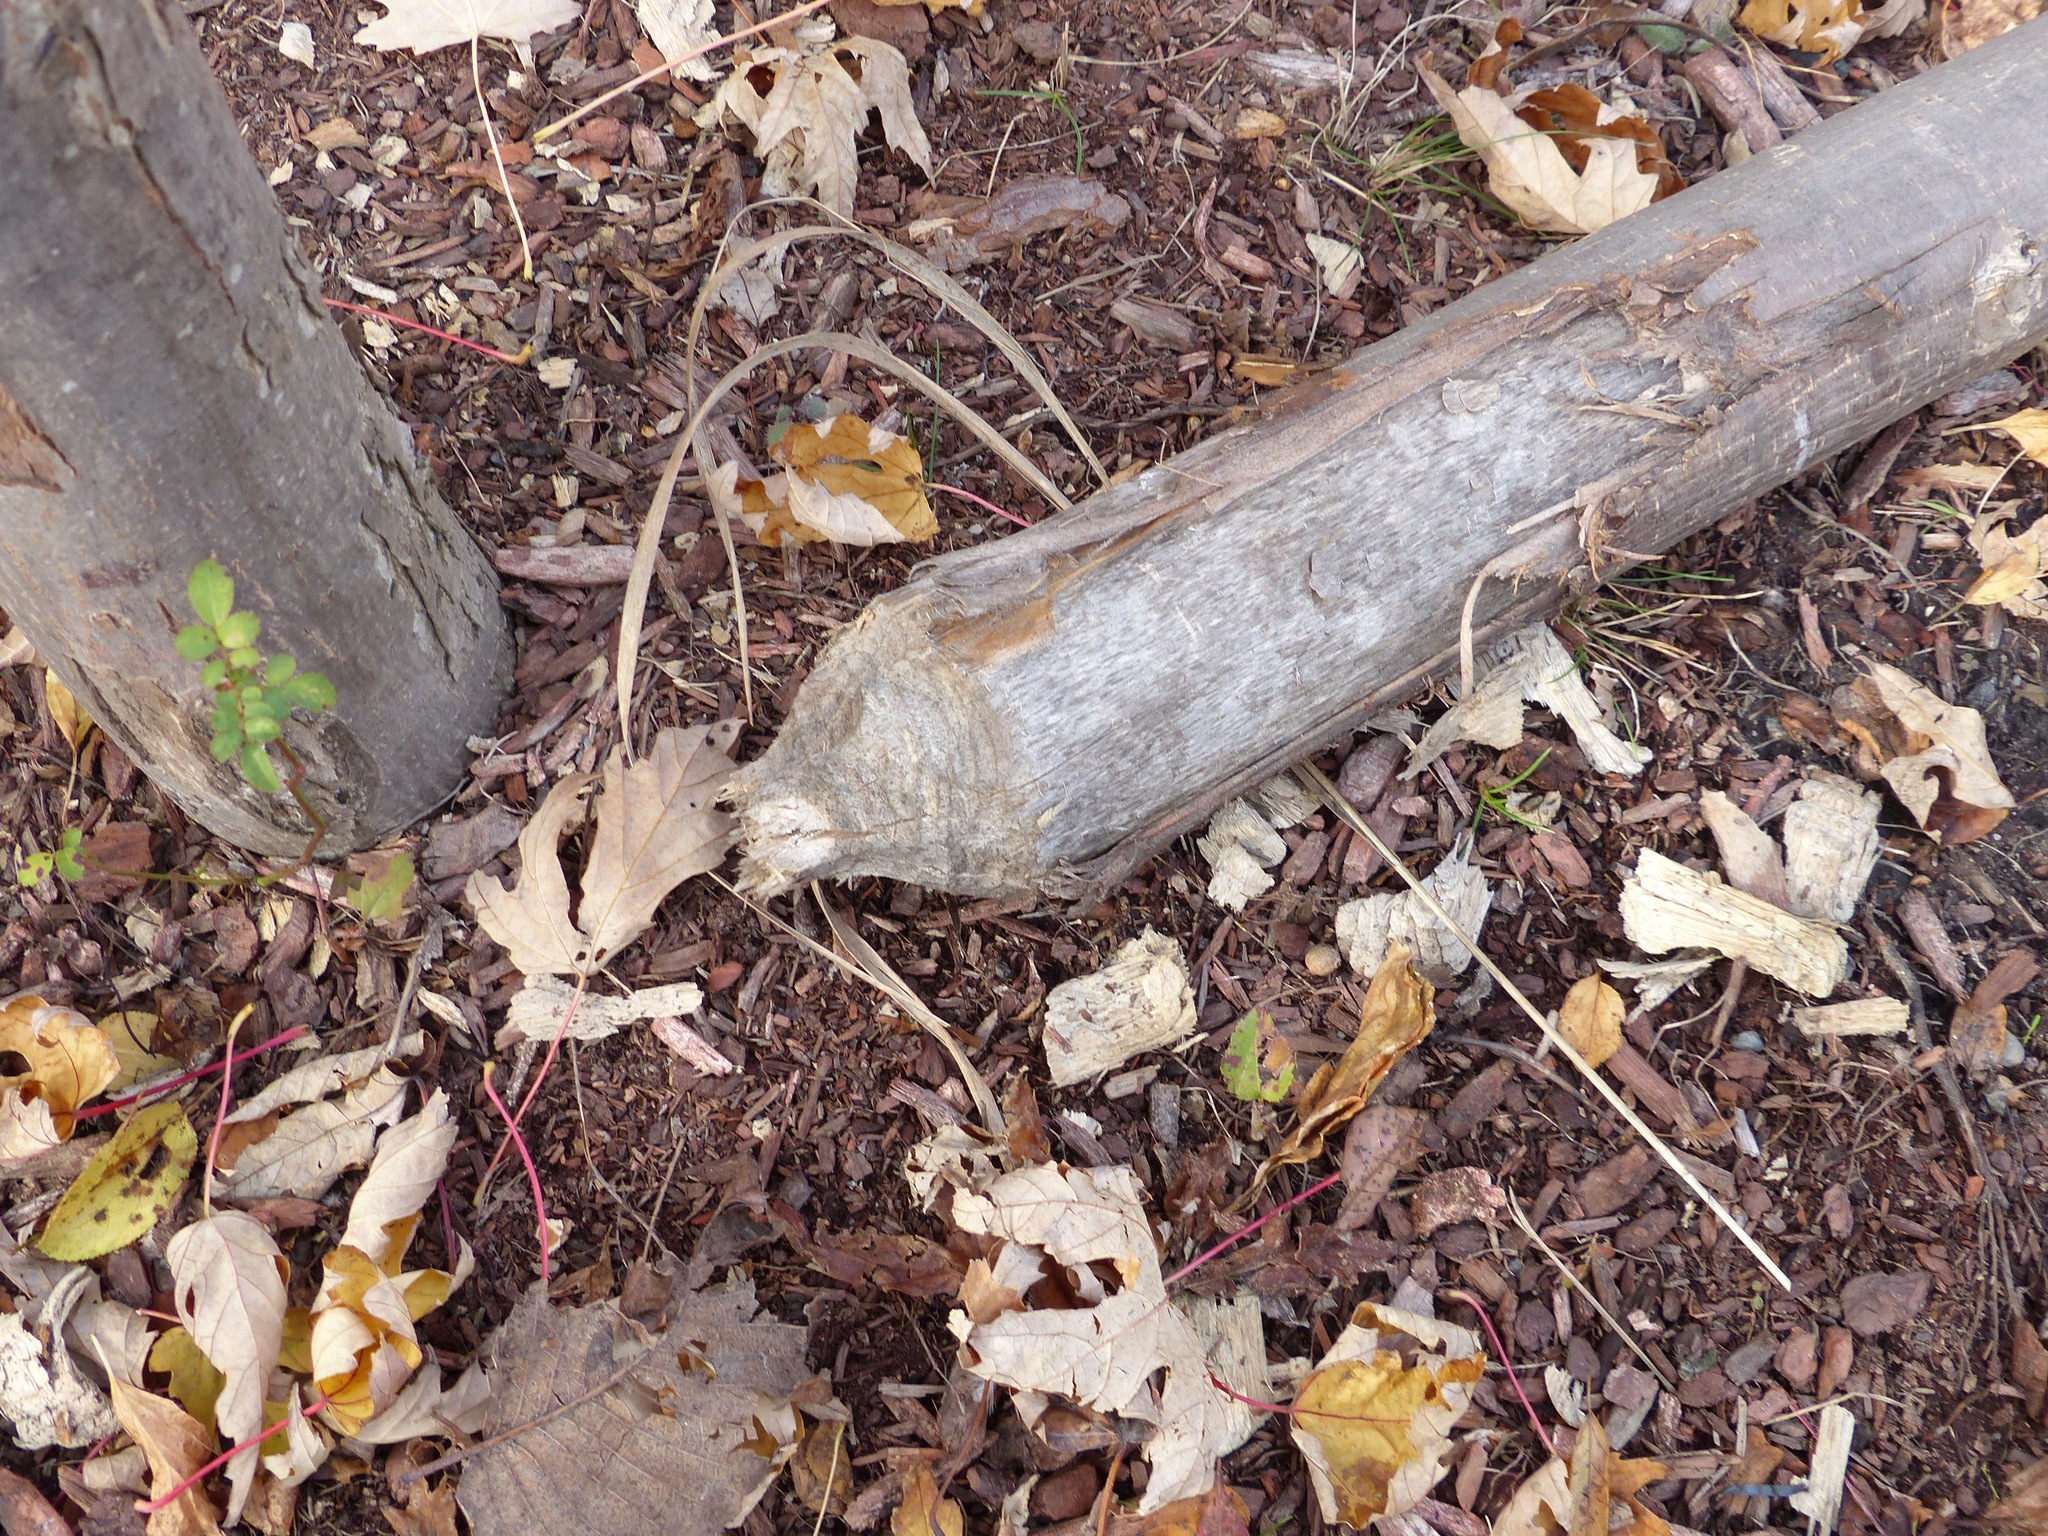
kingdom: Animalia
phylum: Chordata
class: Mammalia
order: Rodentia
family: Castoridae
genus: Castor
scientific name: Castor canadensis
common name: American beaver
